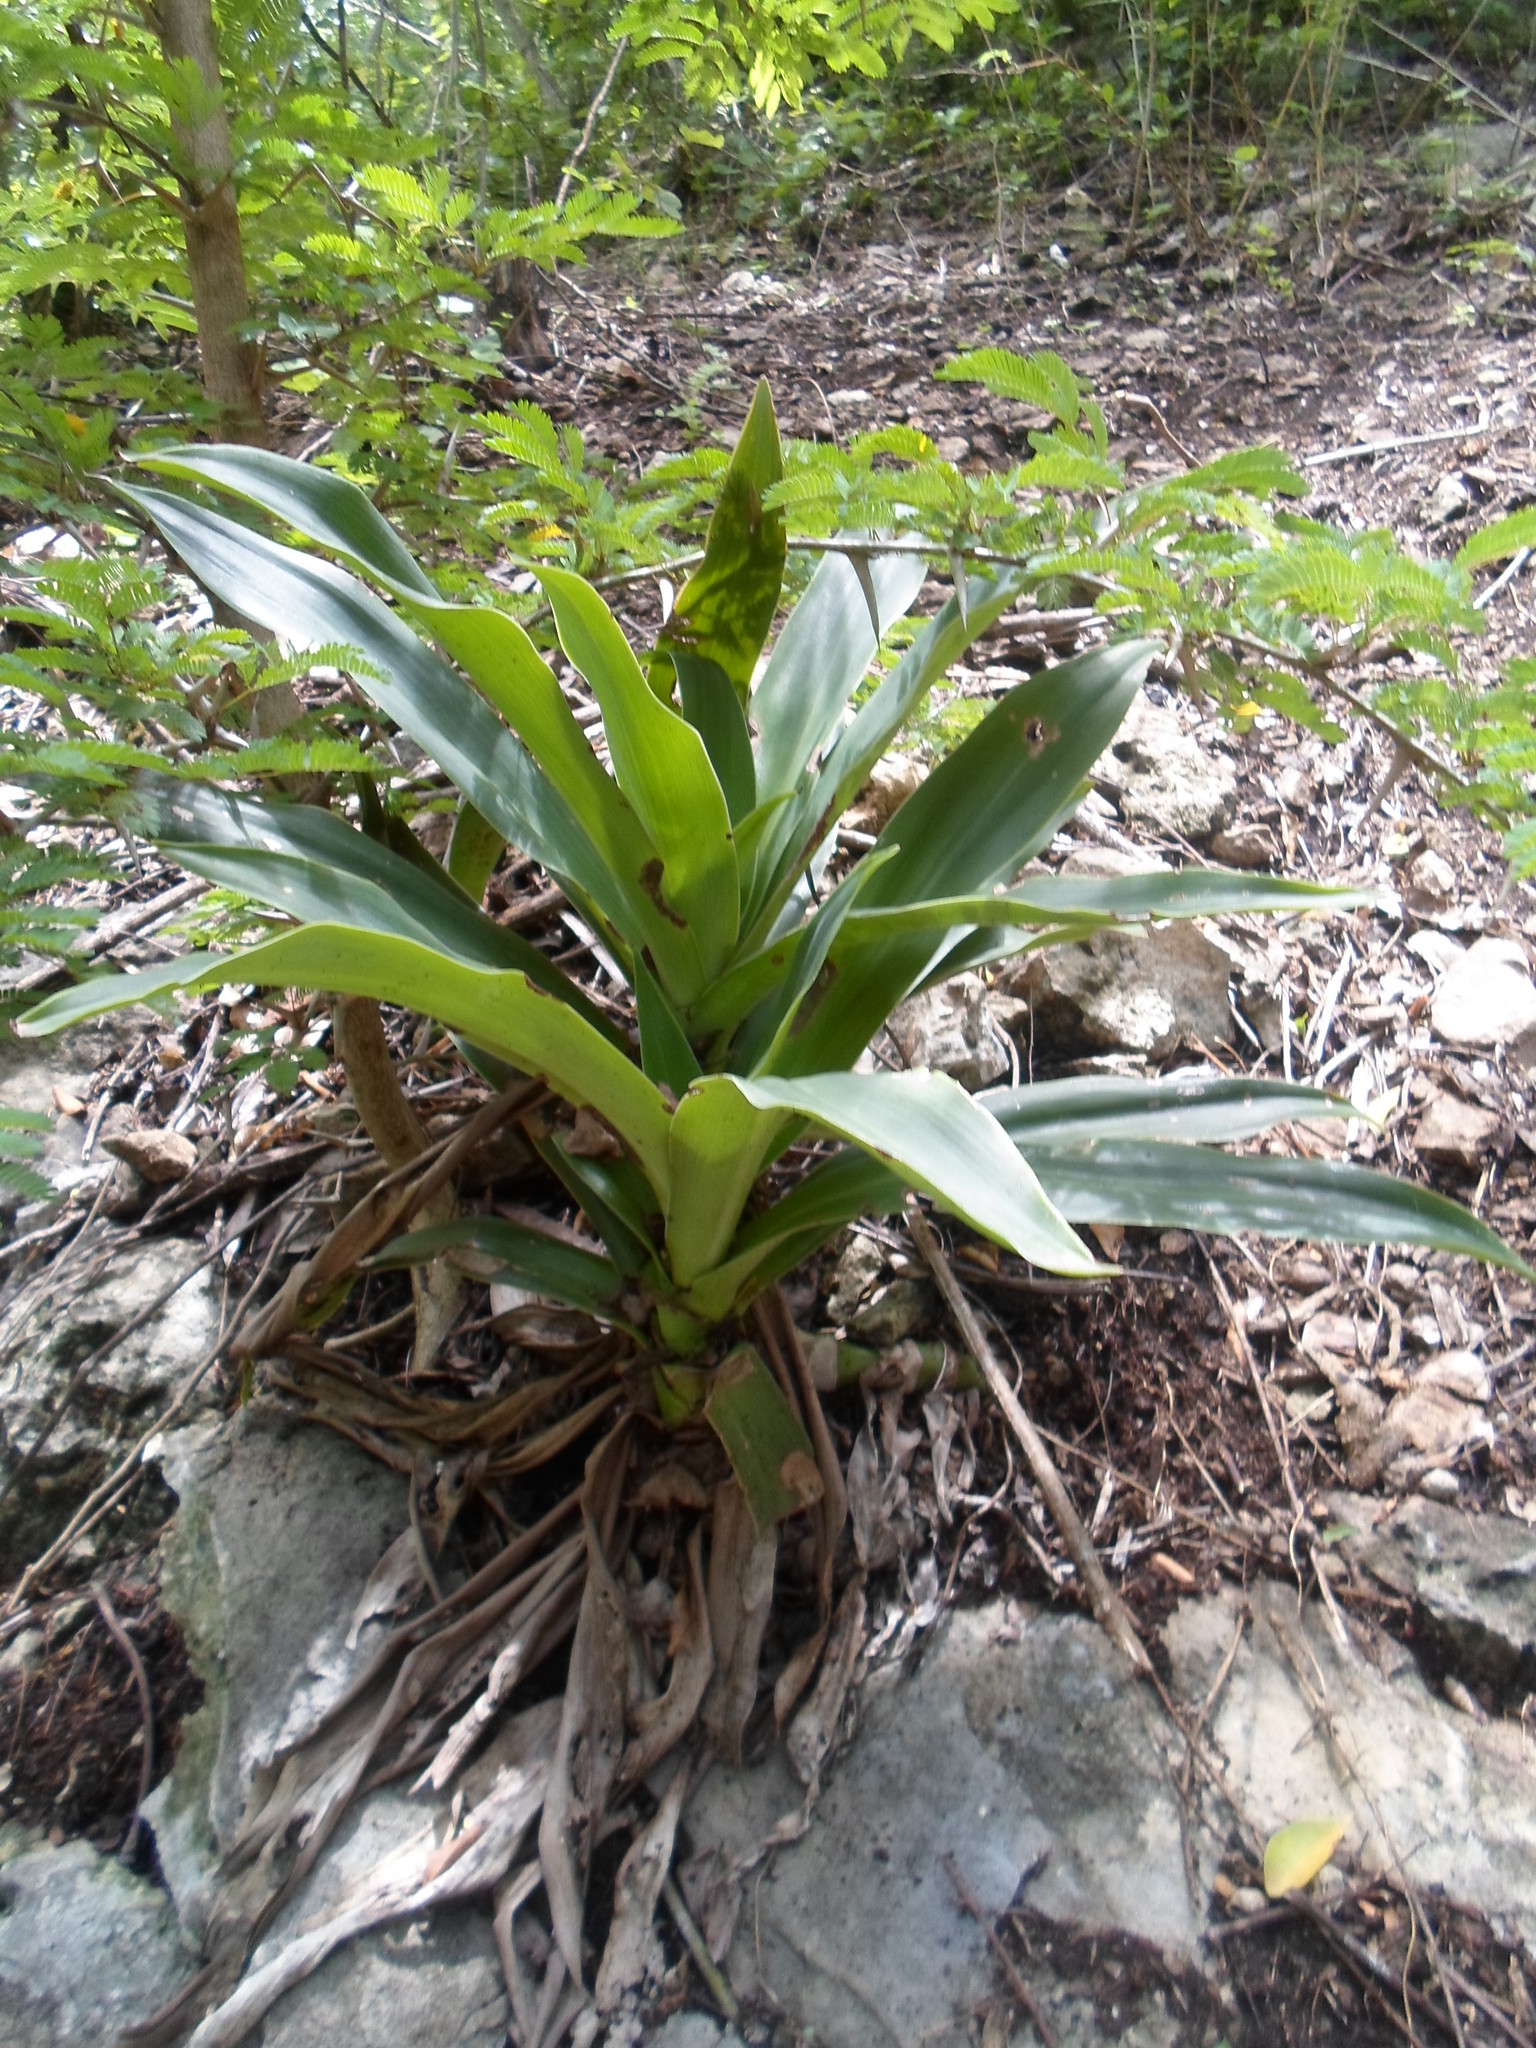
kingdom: Plantae
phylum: Tracheophyta
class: Liliopsida
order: Commelinales
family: Commelinaceae
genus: Callisia
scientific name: Callisia fragrans
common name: Basketplant
